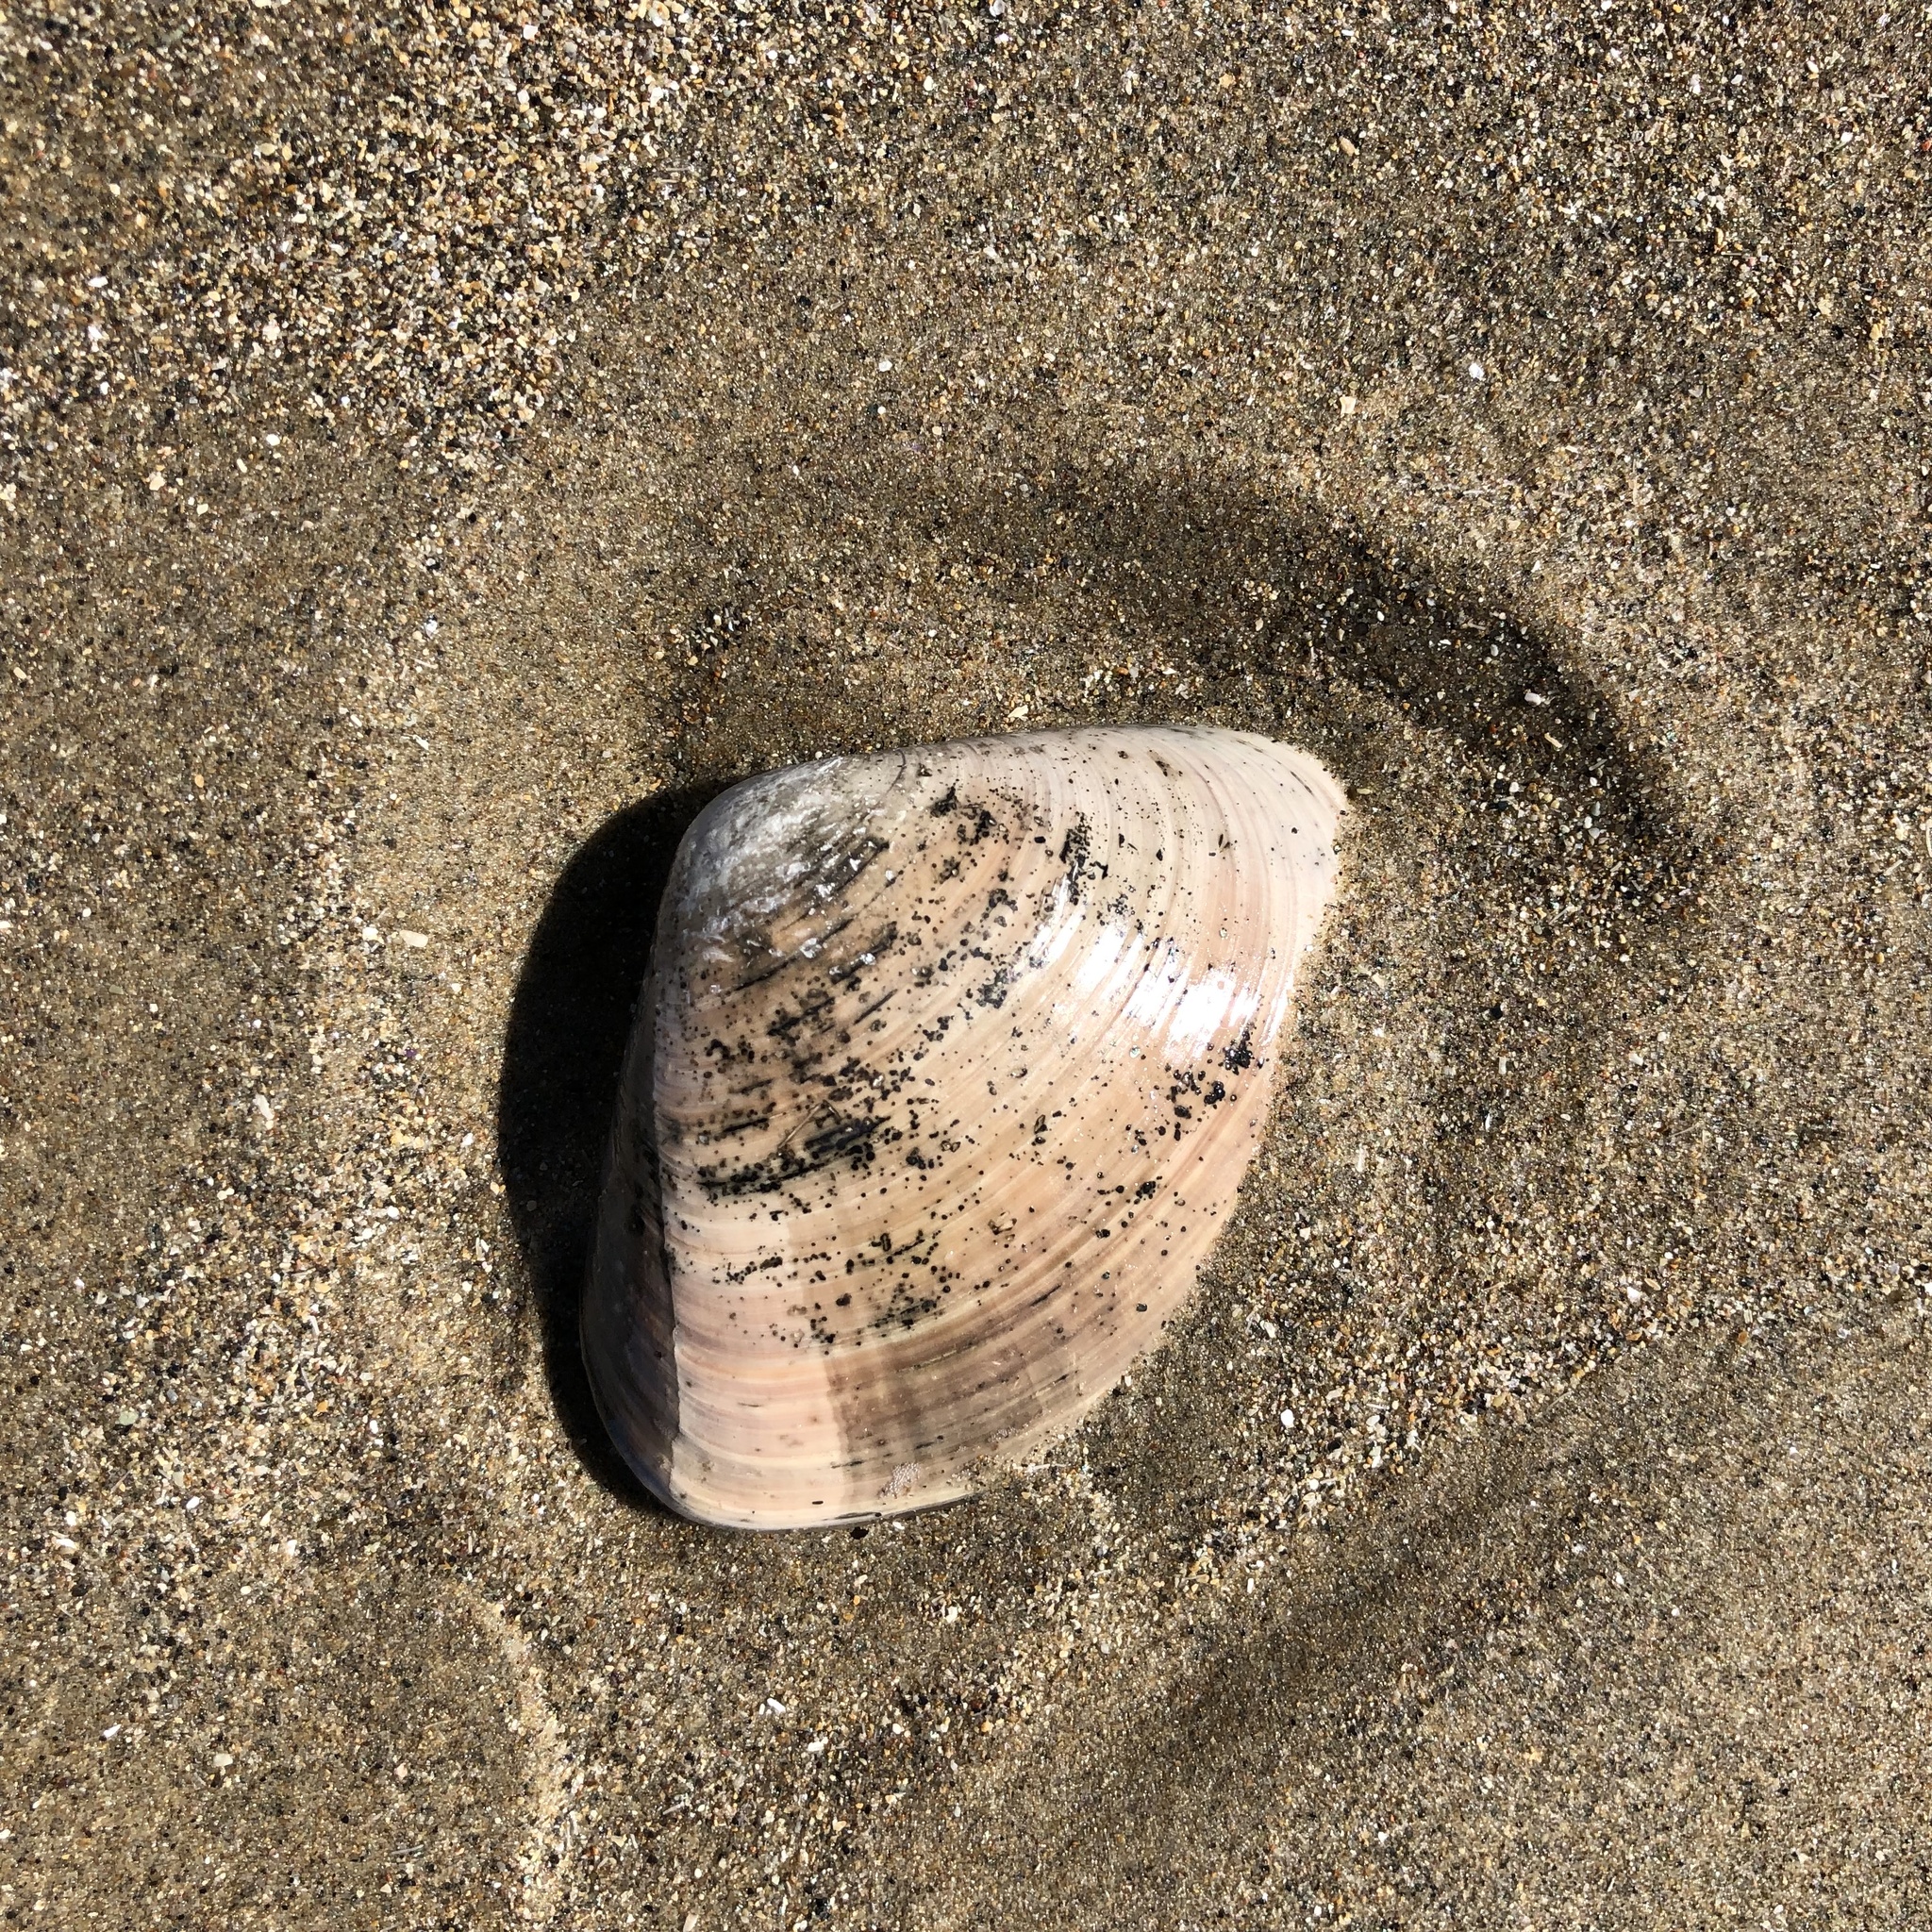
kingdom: Animalia
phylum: Mollusca
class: Bivalvia
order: Venerida
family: Veneridae
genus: Tivela
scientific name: Tivela stultorum
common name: Pismo clam
